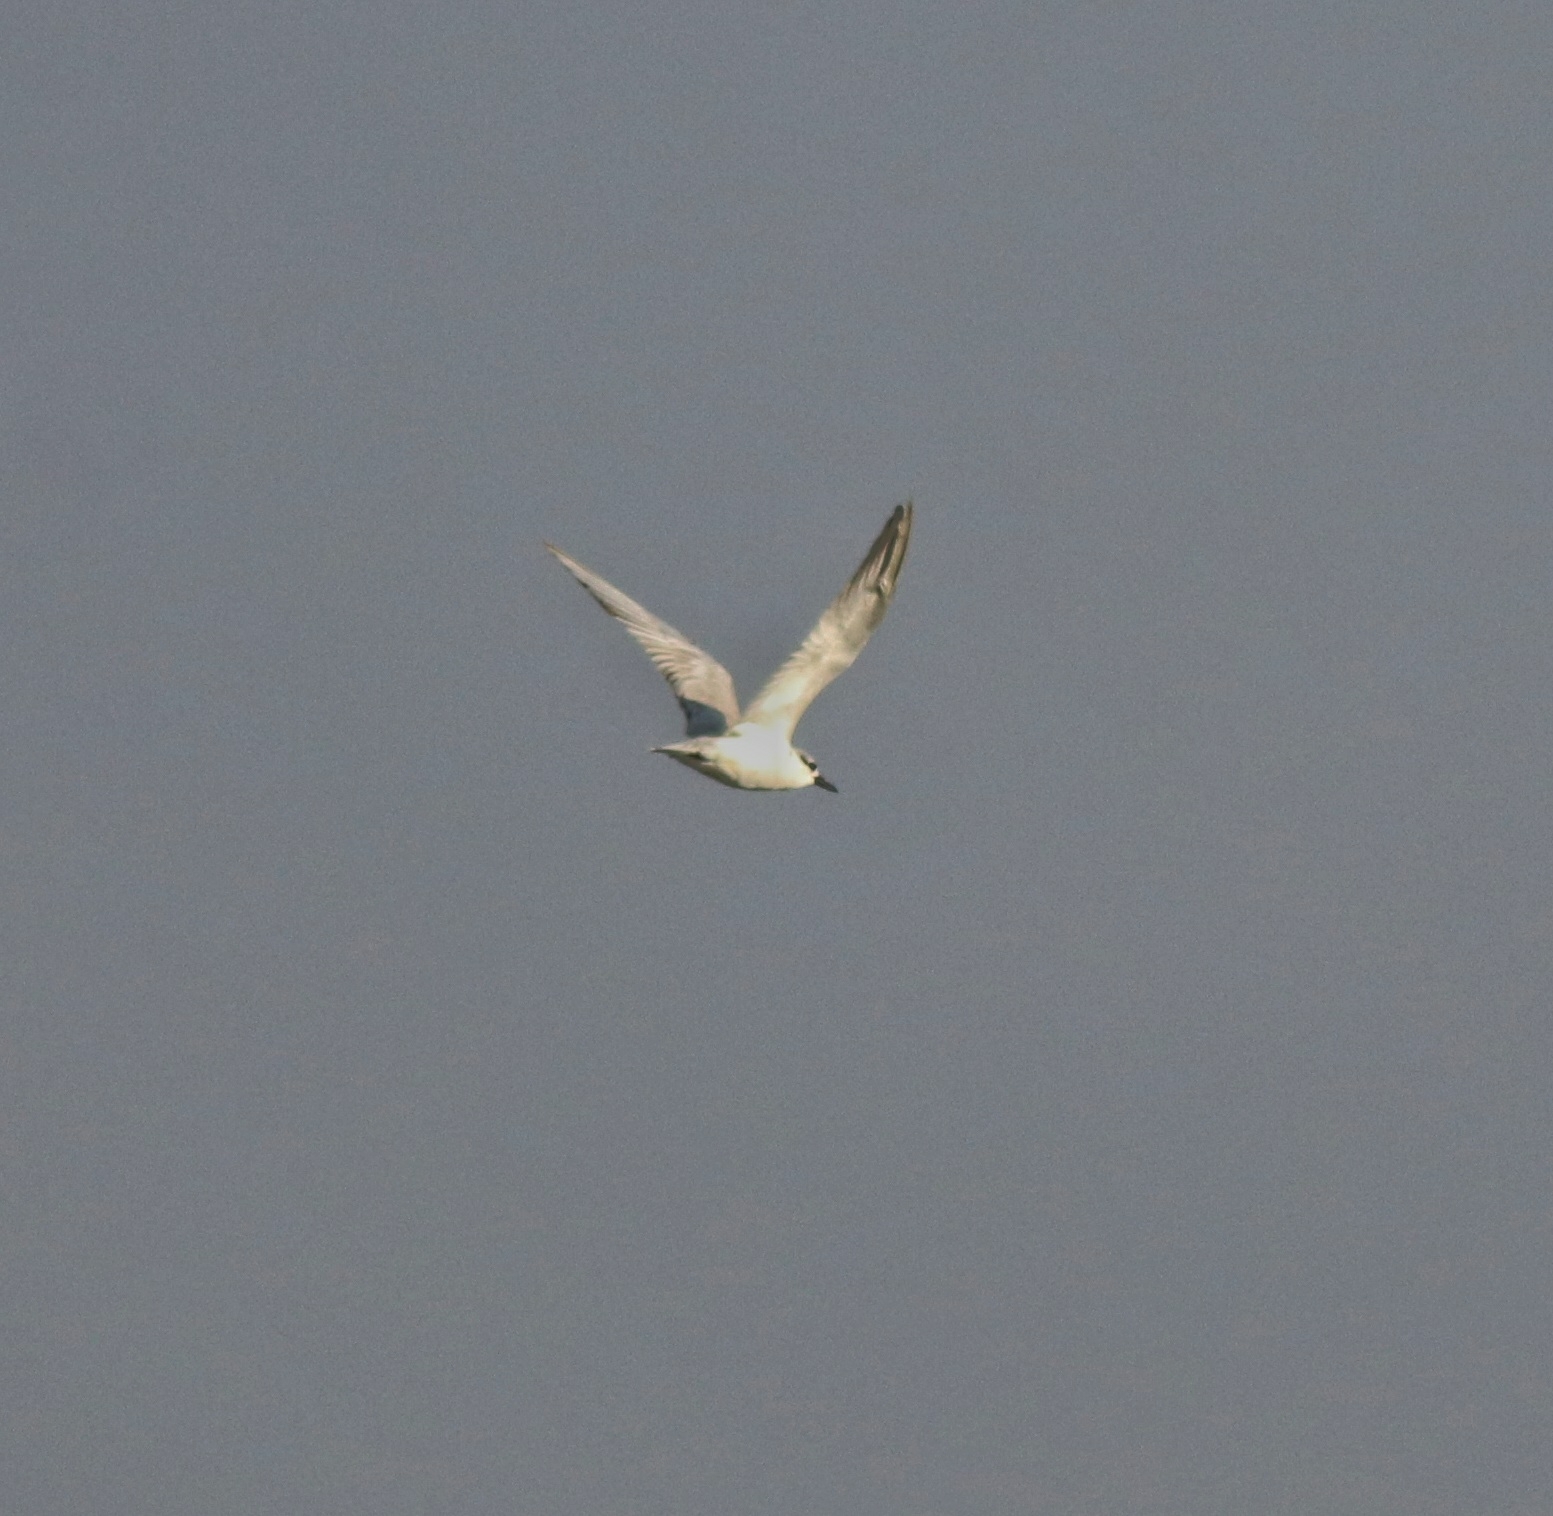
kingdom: Animalia
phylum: Chordata
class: Aves
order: Charadriiformes
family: Laridae
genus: Chlidonias
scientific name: Chlidonias hybrida
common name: Whiskered tern
